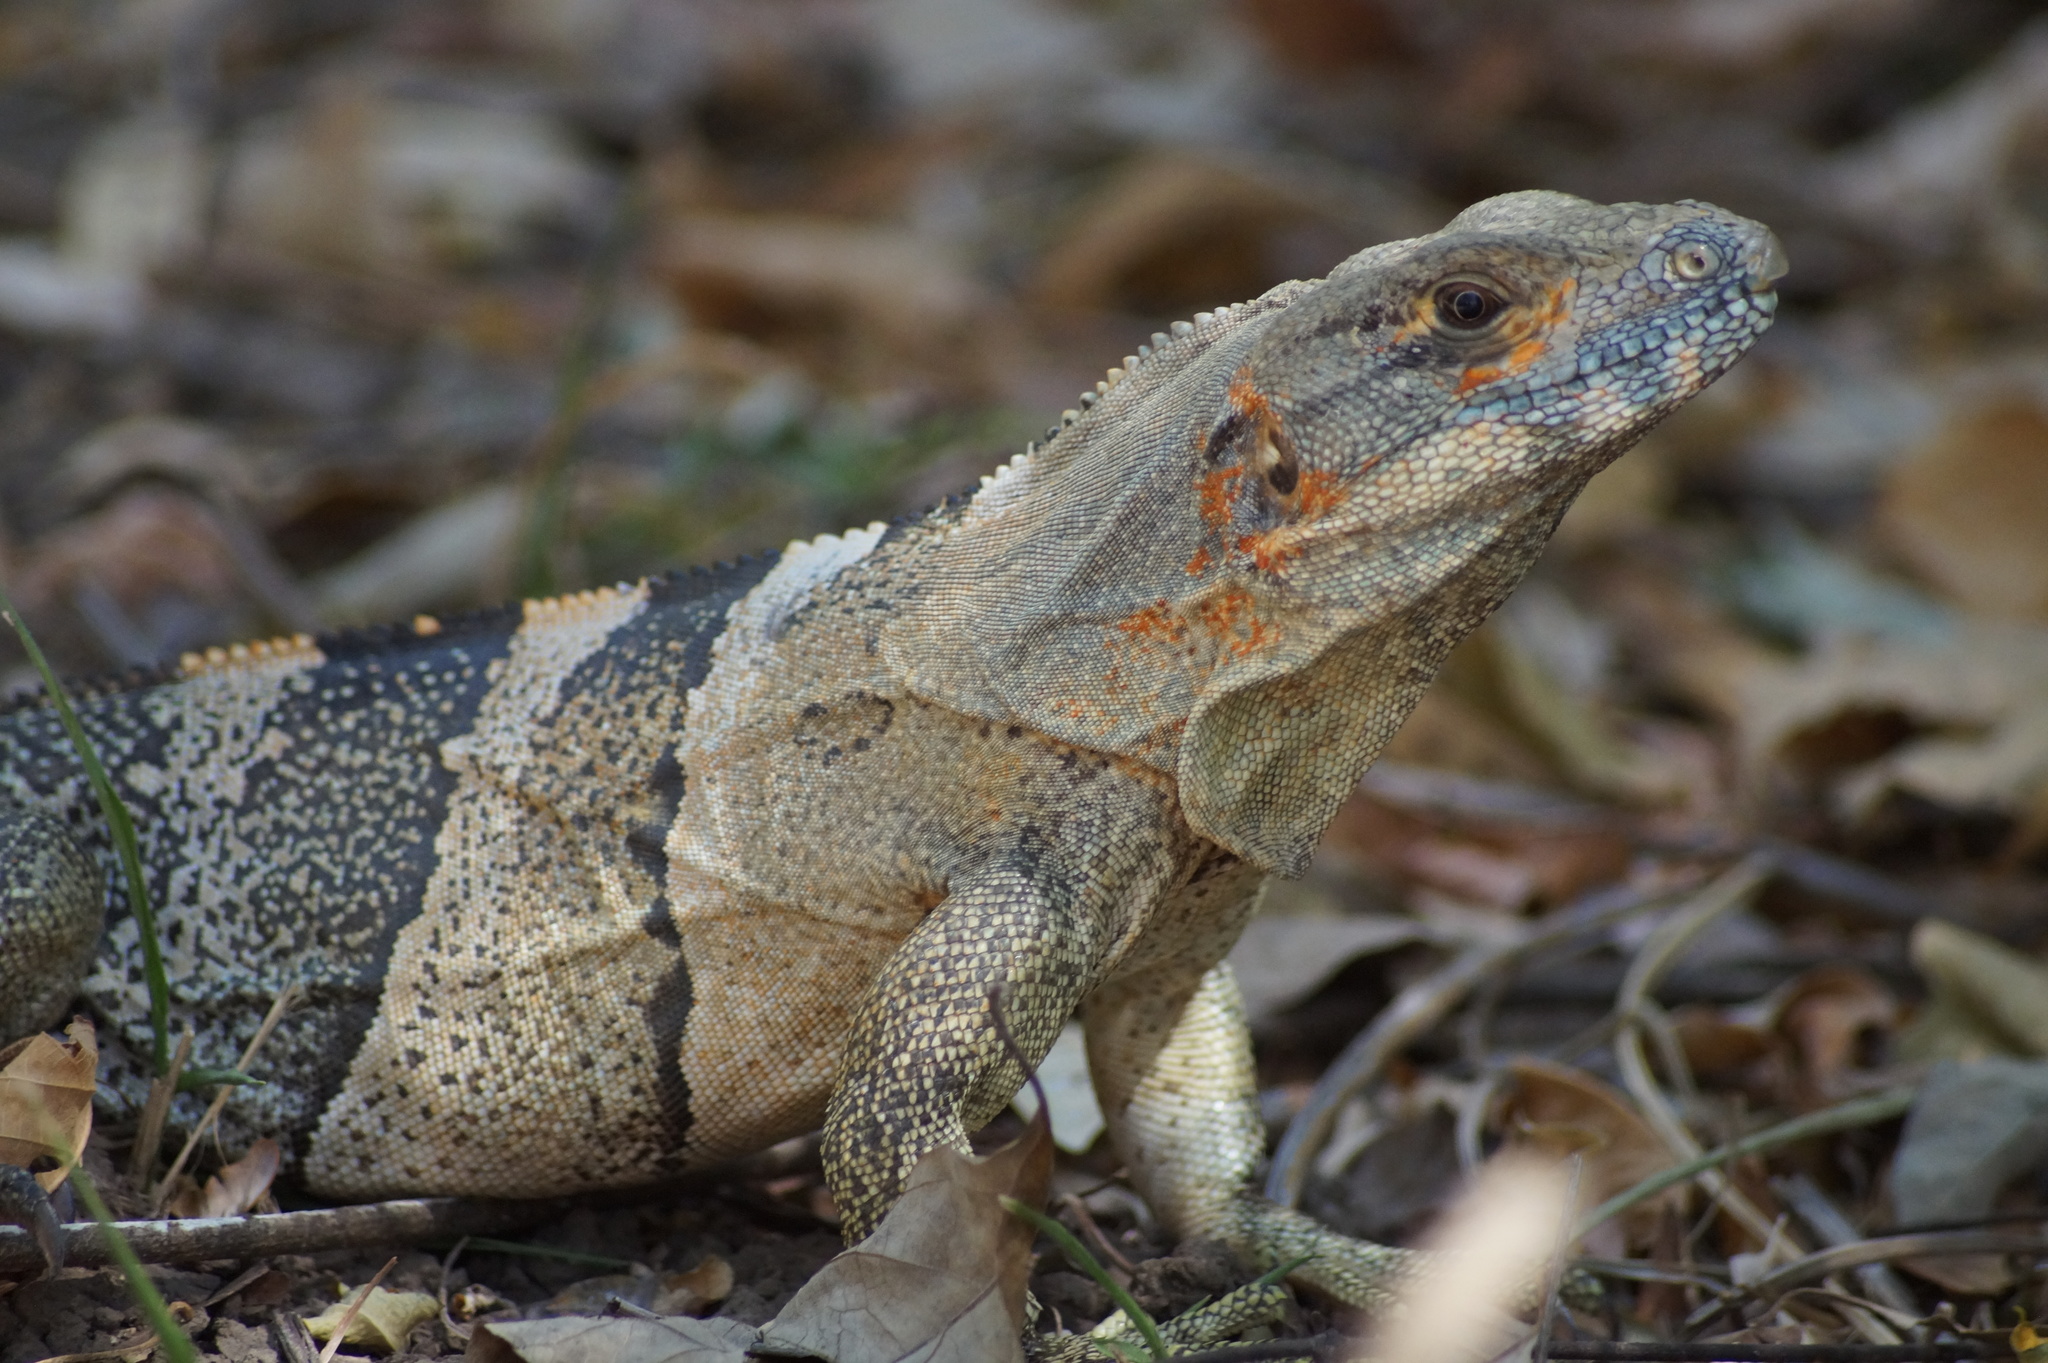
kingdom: Animalia
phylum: Chordata
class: Squamata
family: Iguanidae
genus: Ctenosaura
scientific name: Ctenosaura similis
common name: Black spiny-tailed iguana
